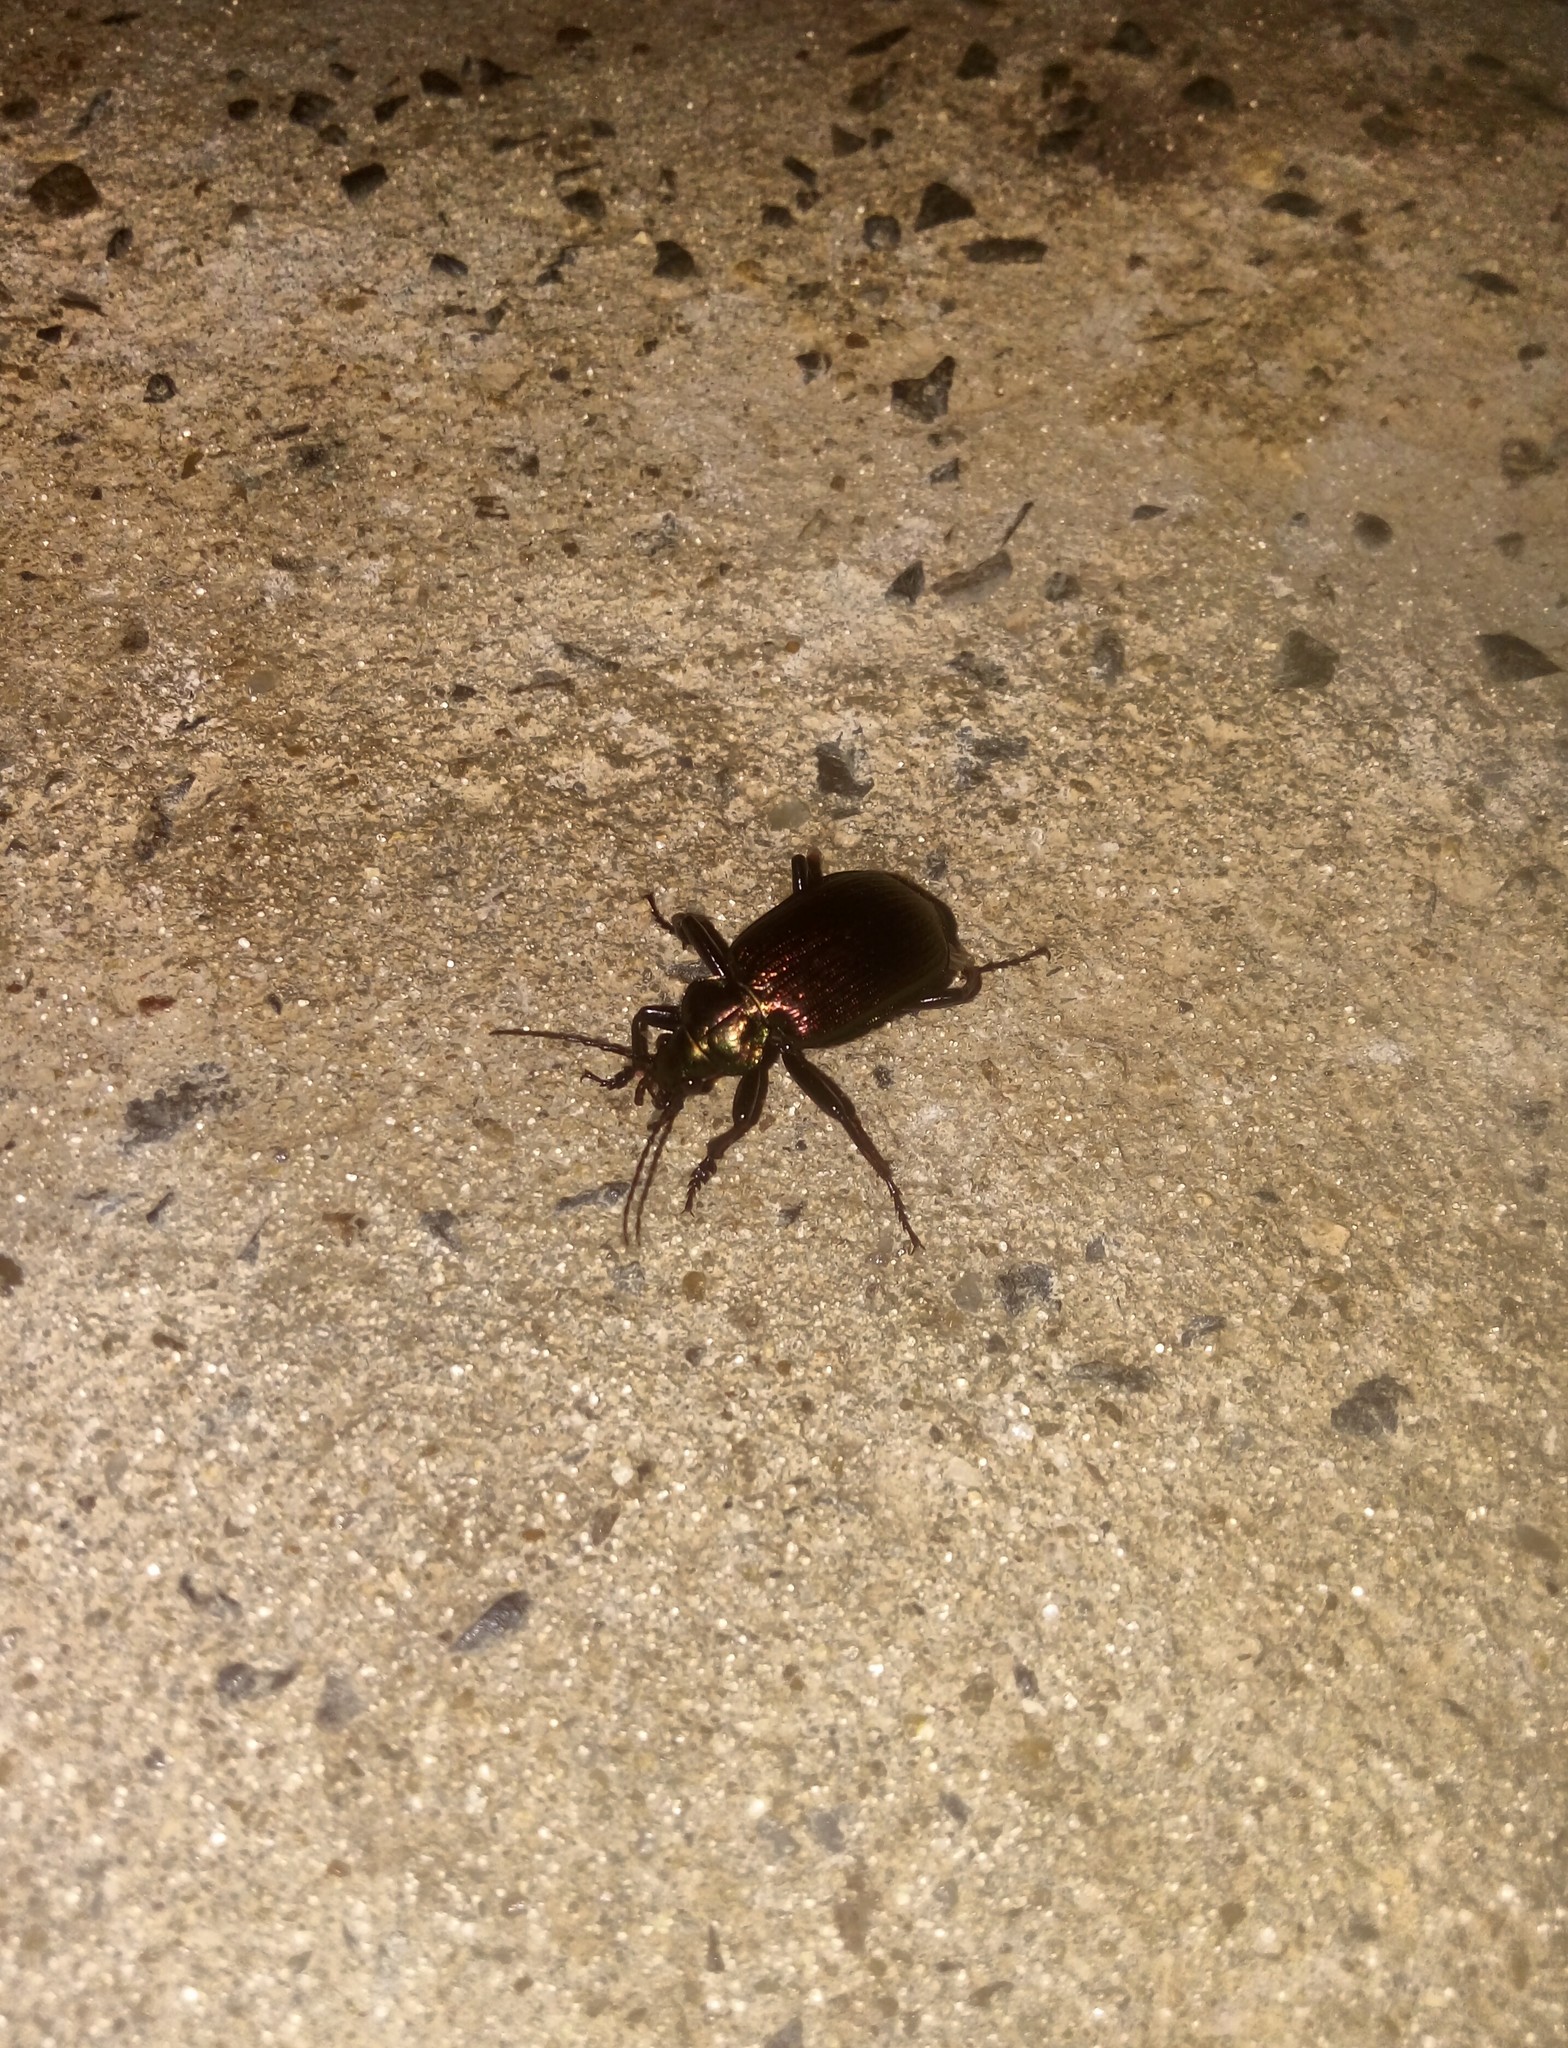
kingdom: Animalia
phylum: Arthropoda
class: Insecta
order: Coleoptera
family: Carabidae
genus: Calosoma
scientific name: Calosoma alternans
